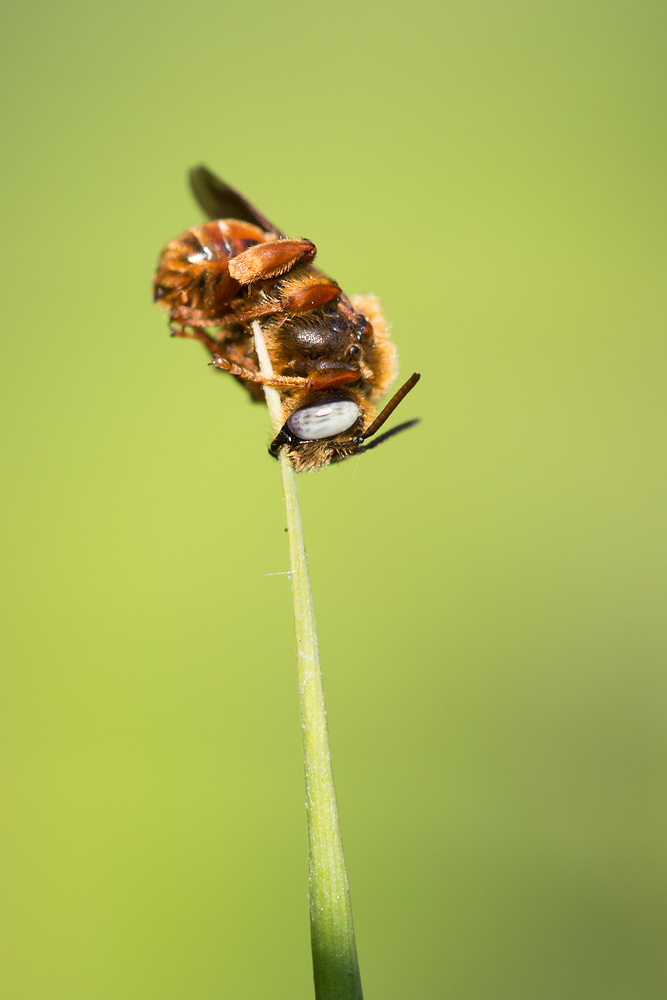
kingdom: Animalia
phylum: Arthropoda
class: Insecta
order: Hymenoptera
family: Apidae
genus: Epeoloides
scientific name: Epeoloides coecutiens
